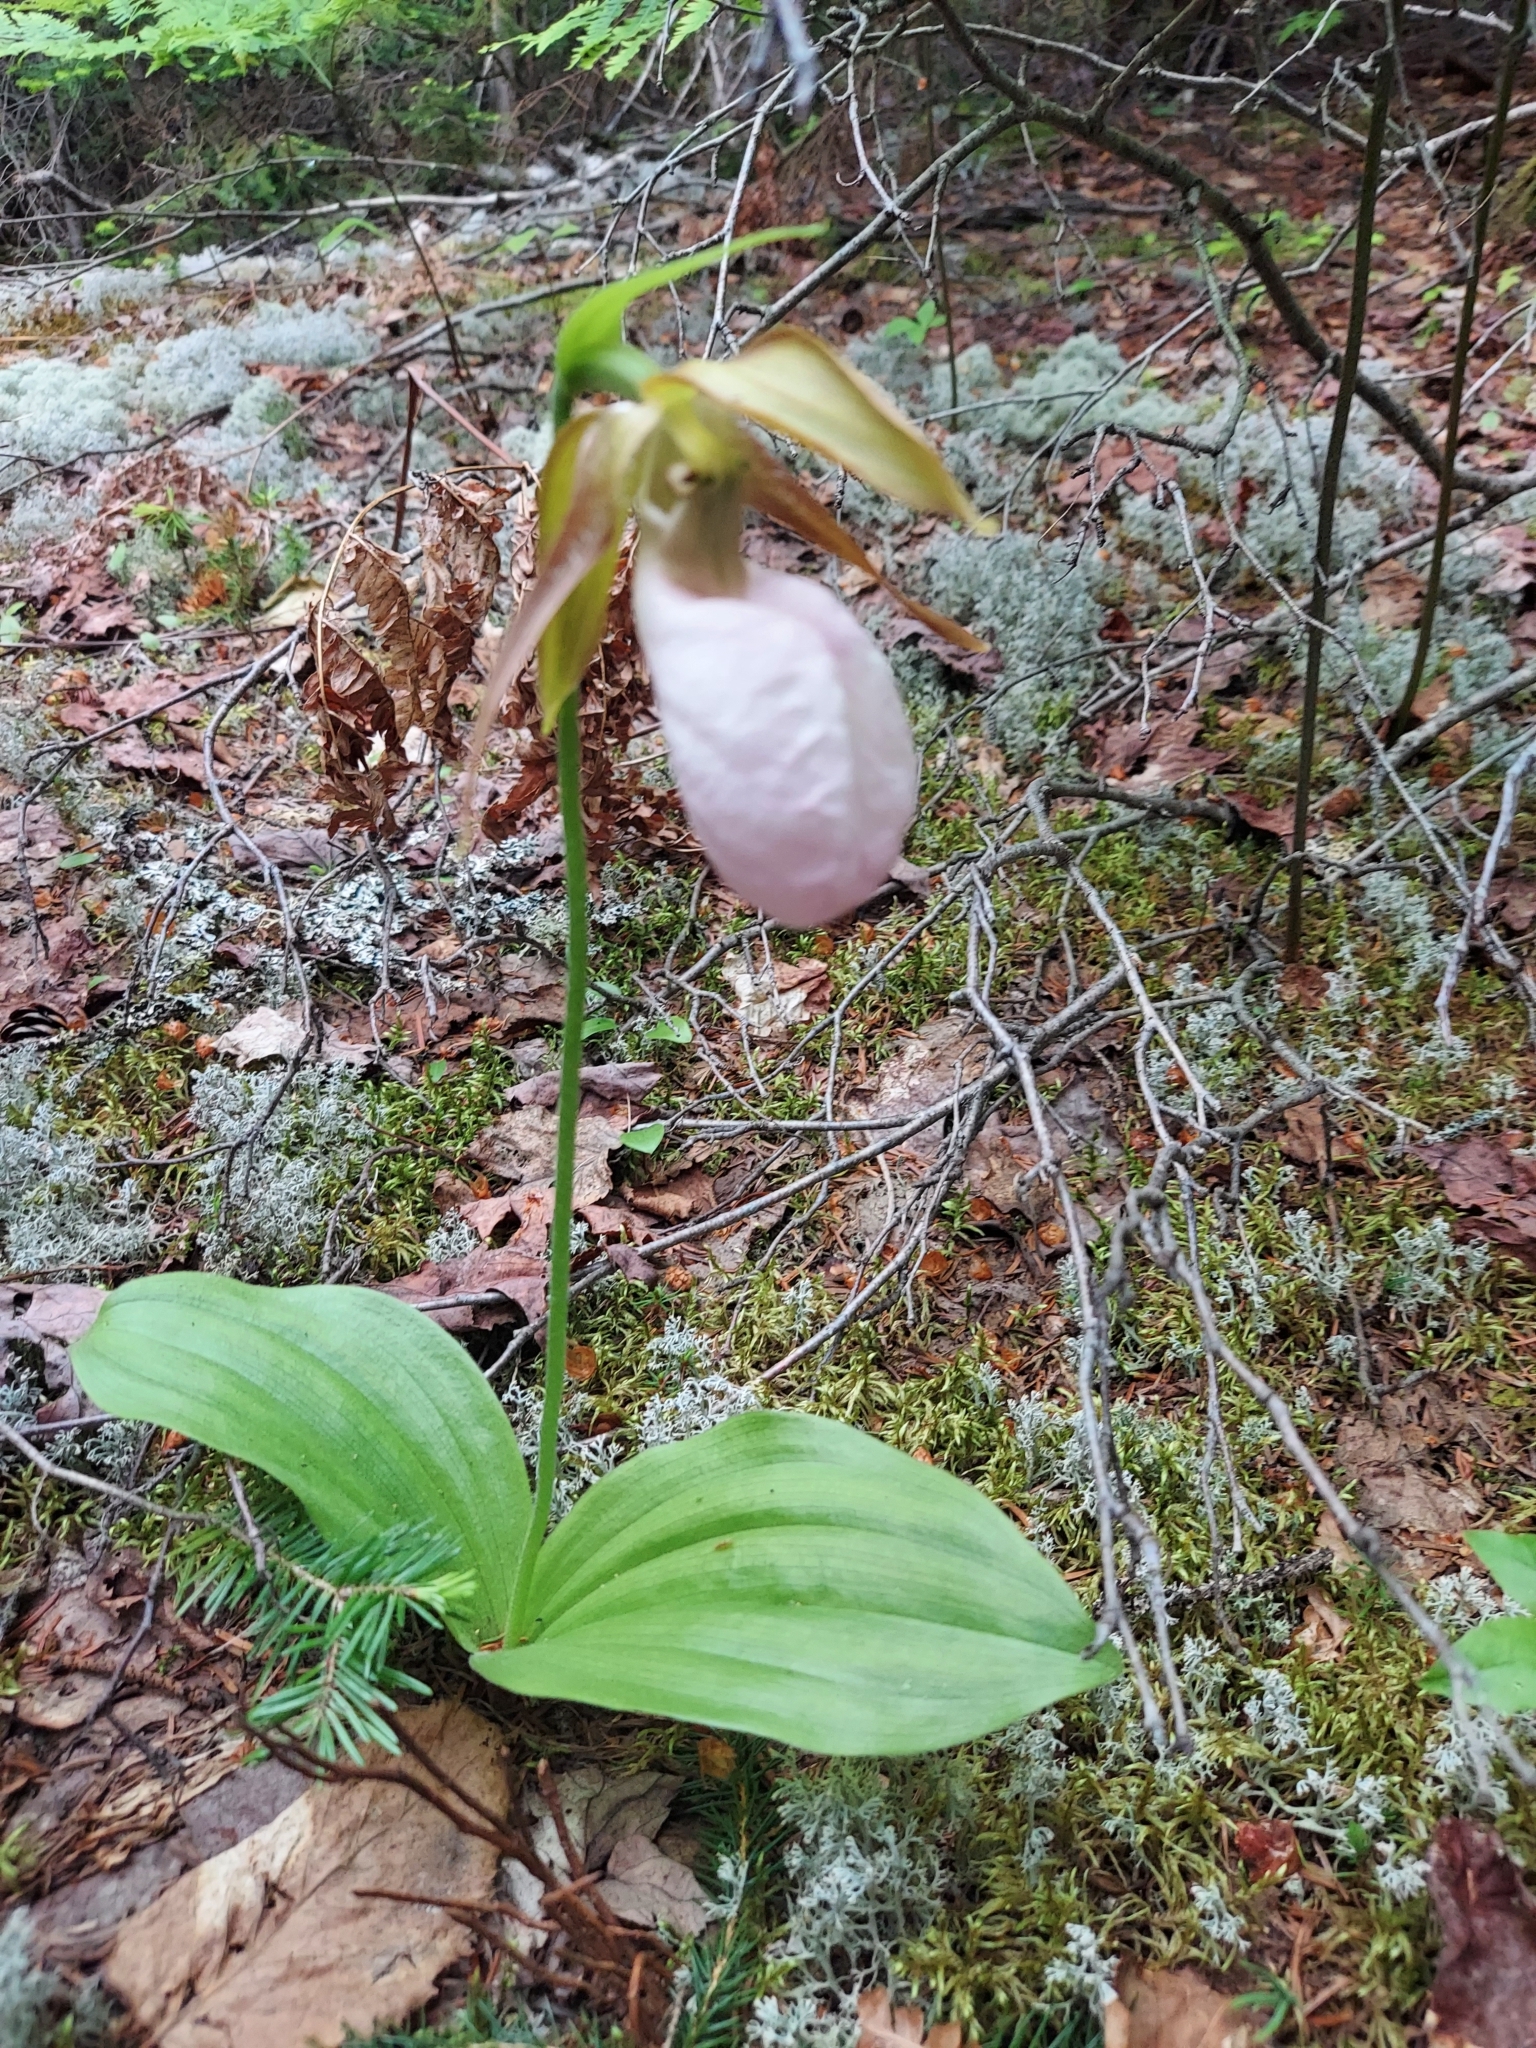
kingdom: Plantae
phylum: Tracheophyta
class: Liliopsida
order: Asparagales
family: Orchidaceae
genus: Cypripedium
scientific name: Cypripedium acaule
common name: Pink lady's-slipper
